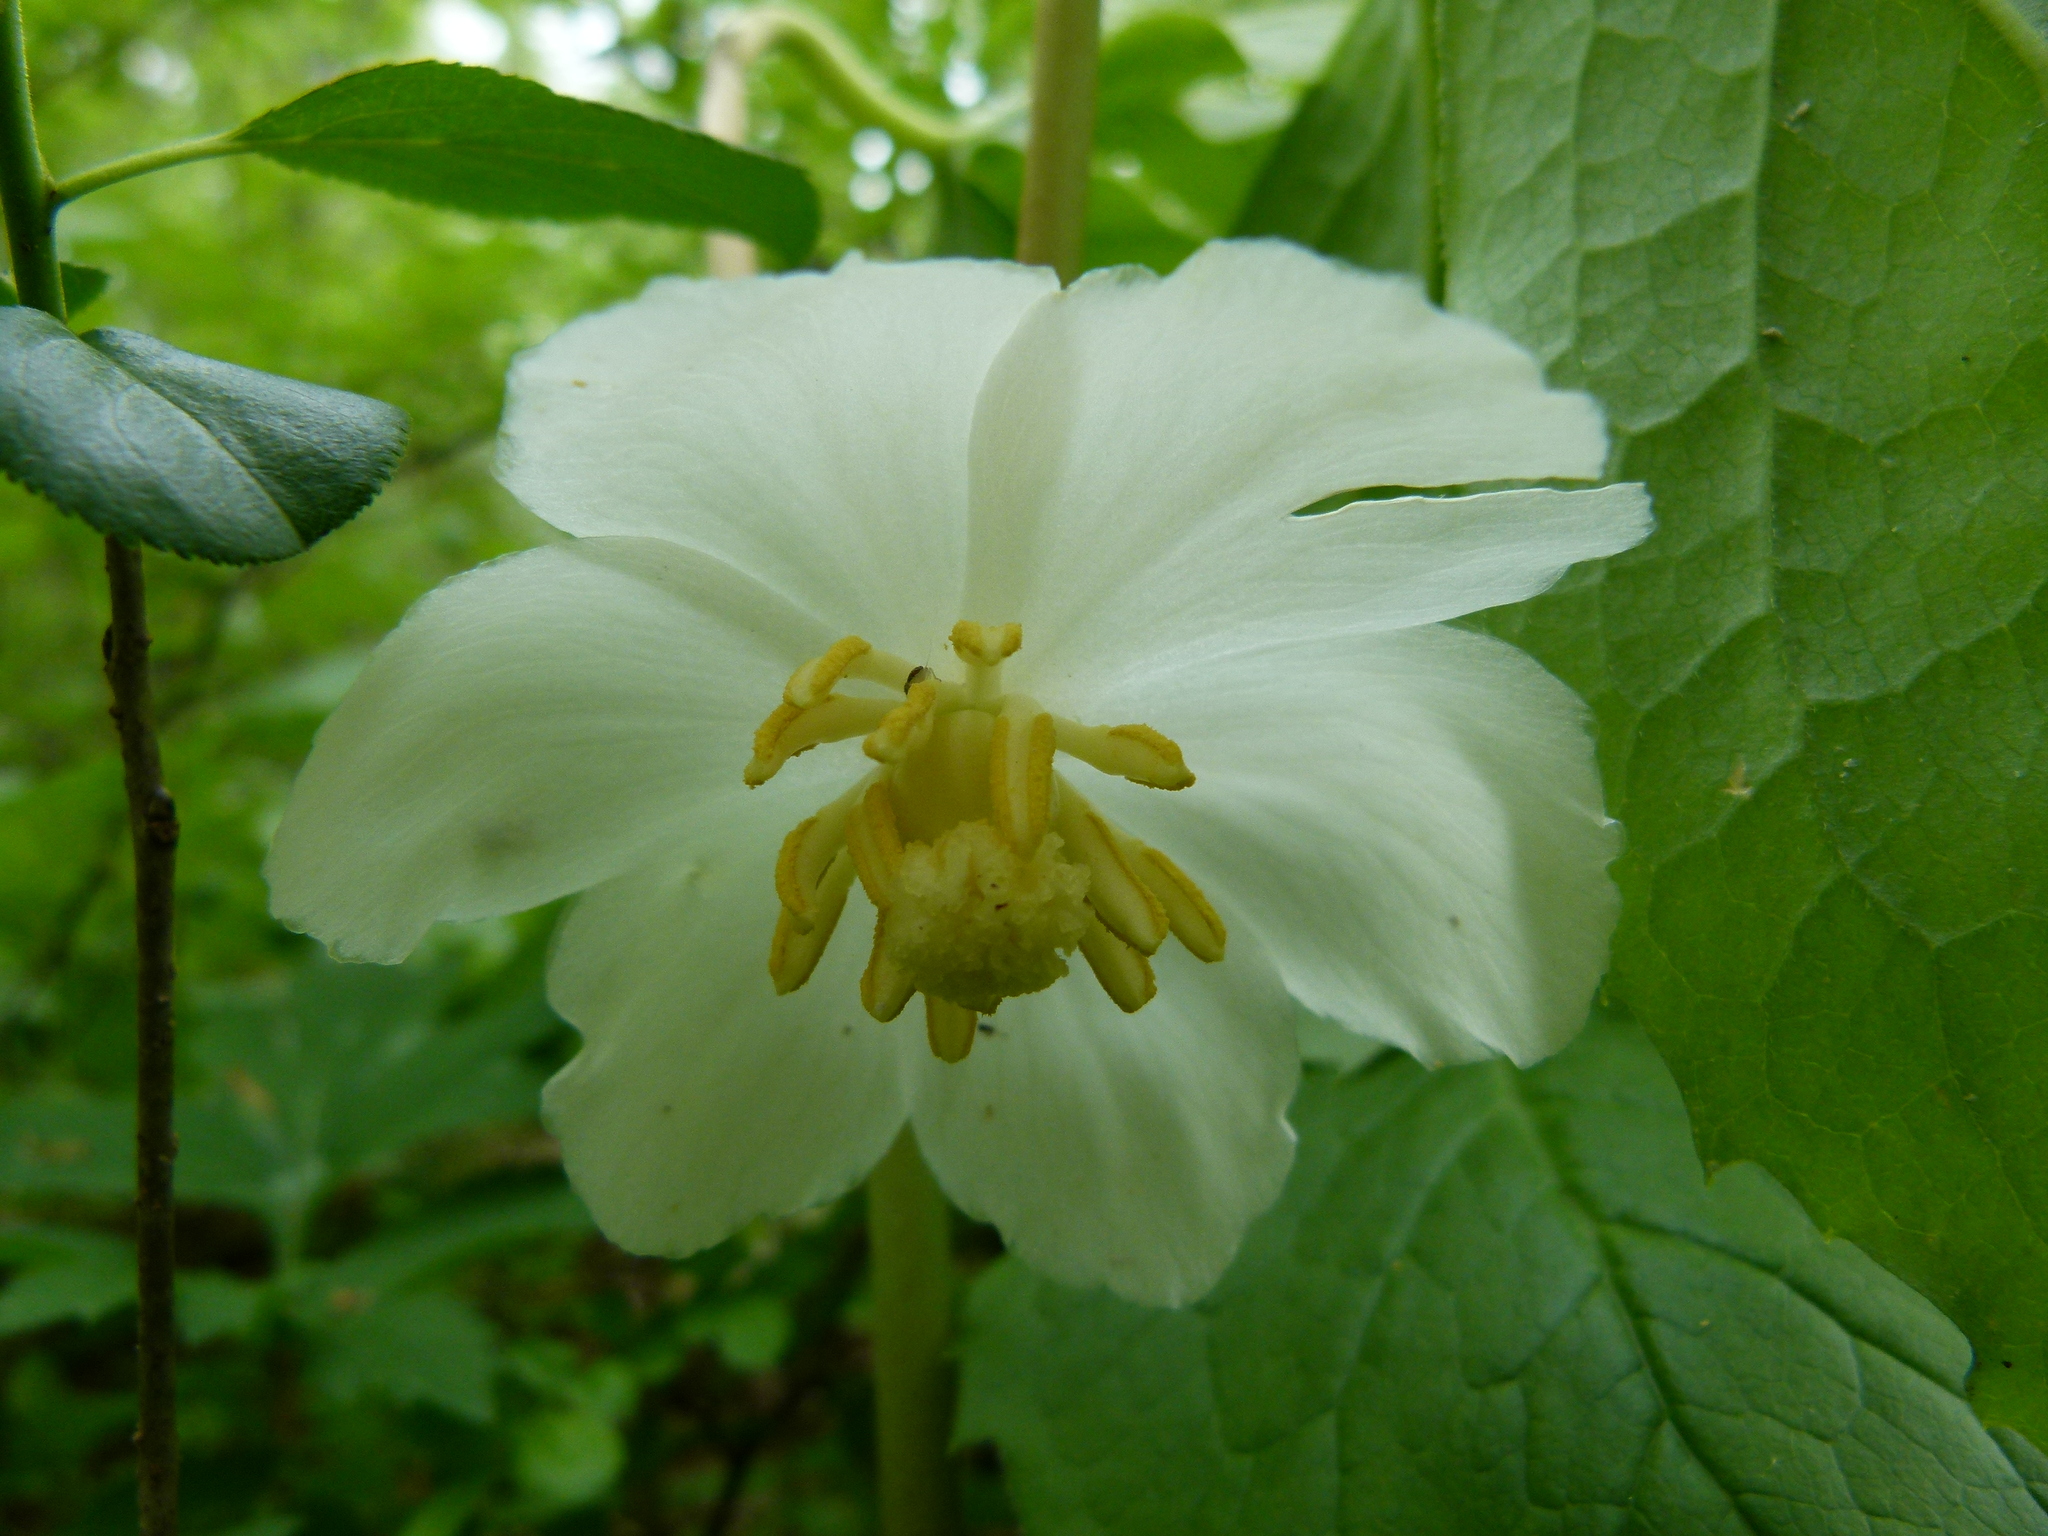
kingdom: Plantae
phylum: Tracheophyta
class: Magnoliopsida
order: Ranunculales
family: Berberidaceae
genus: Podophyllum
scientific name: Podophyllum peltatum
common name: Wild mandrake
